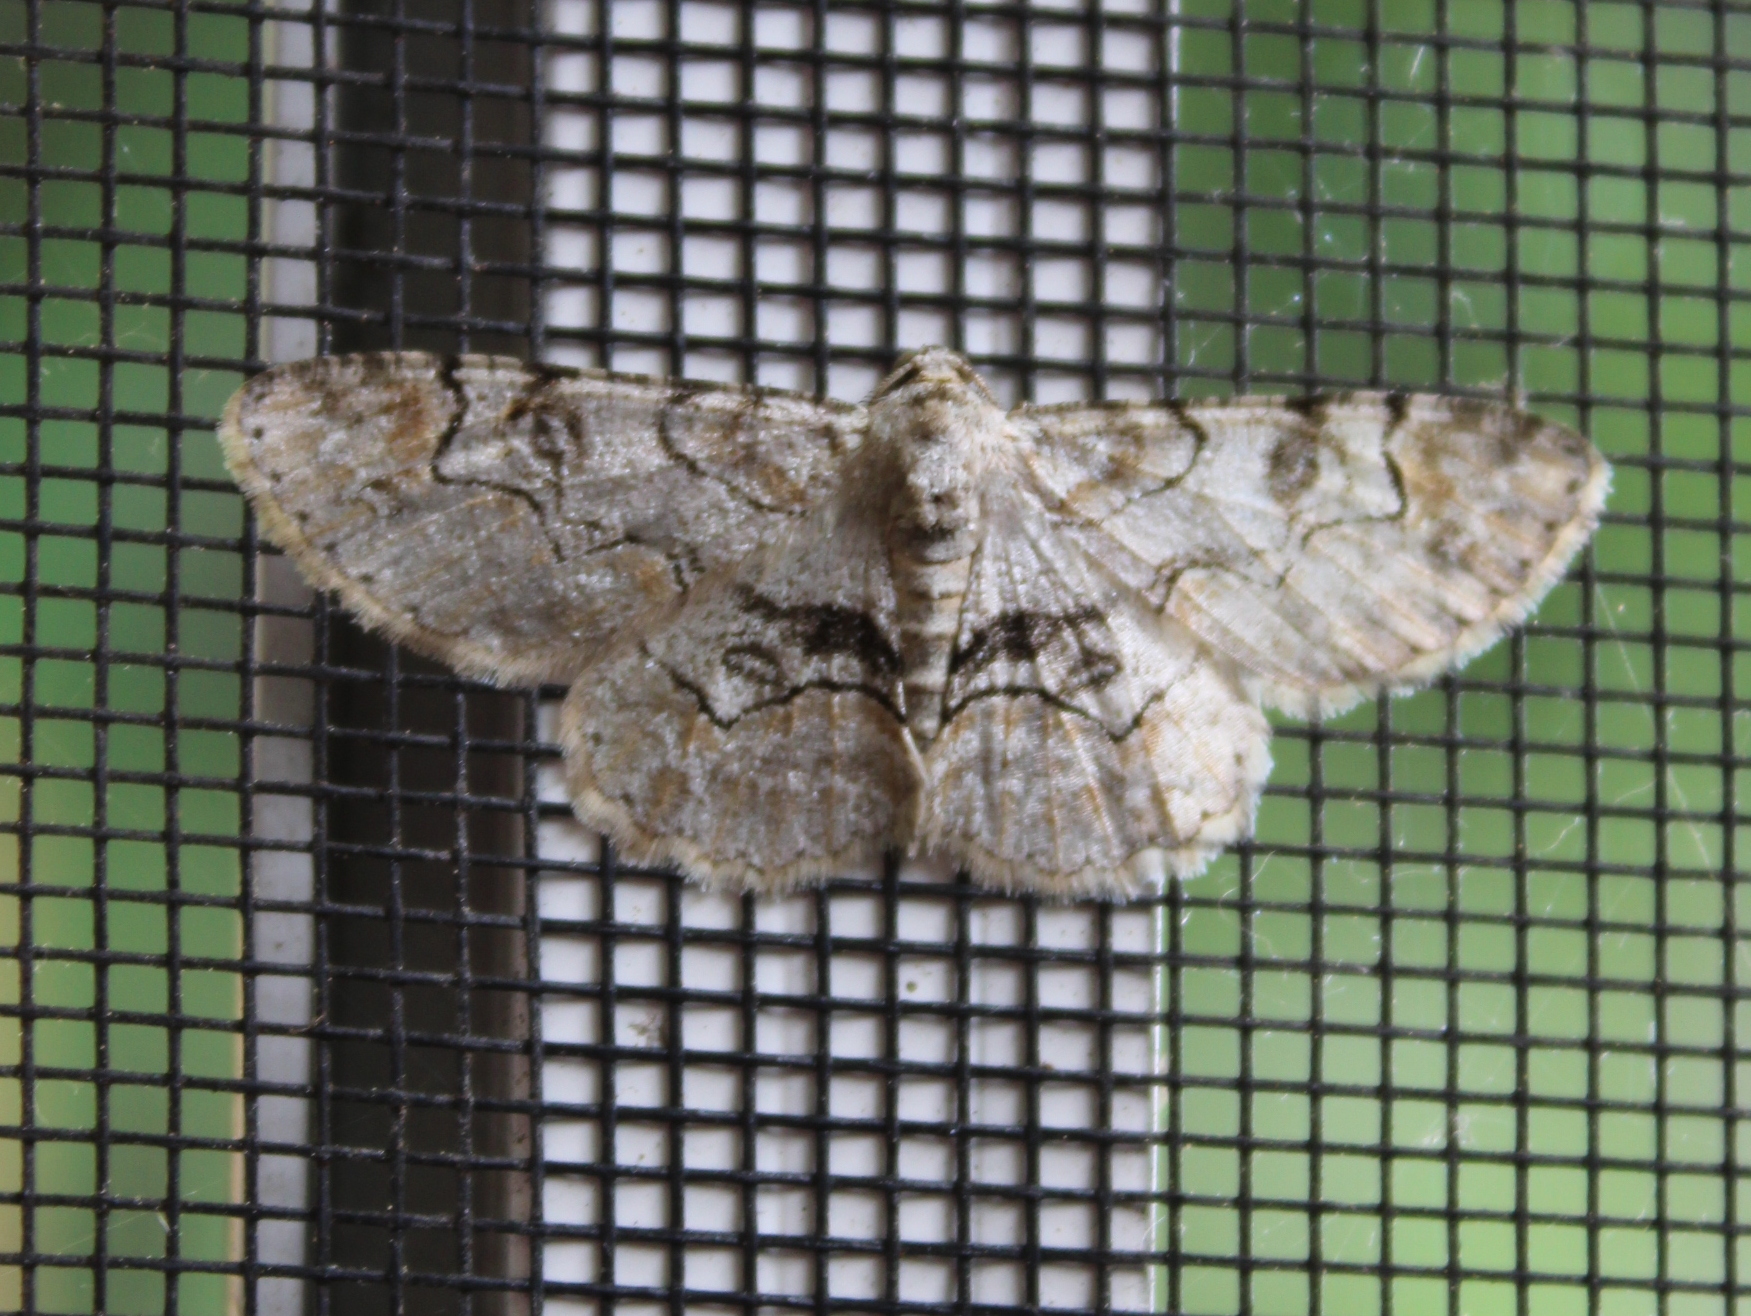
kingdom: Animalia
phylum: Arthropoda
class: Insecta
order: Lepidoptera
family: Geometridae
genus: Iridopsis
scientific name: Iridopsis larvaria
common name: Bent-line gray
